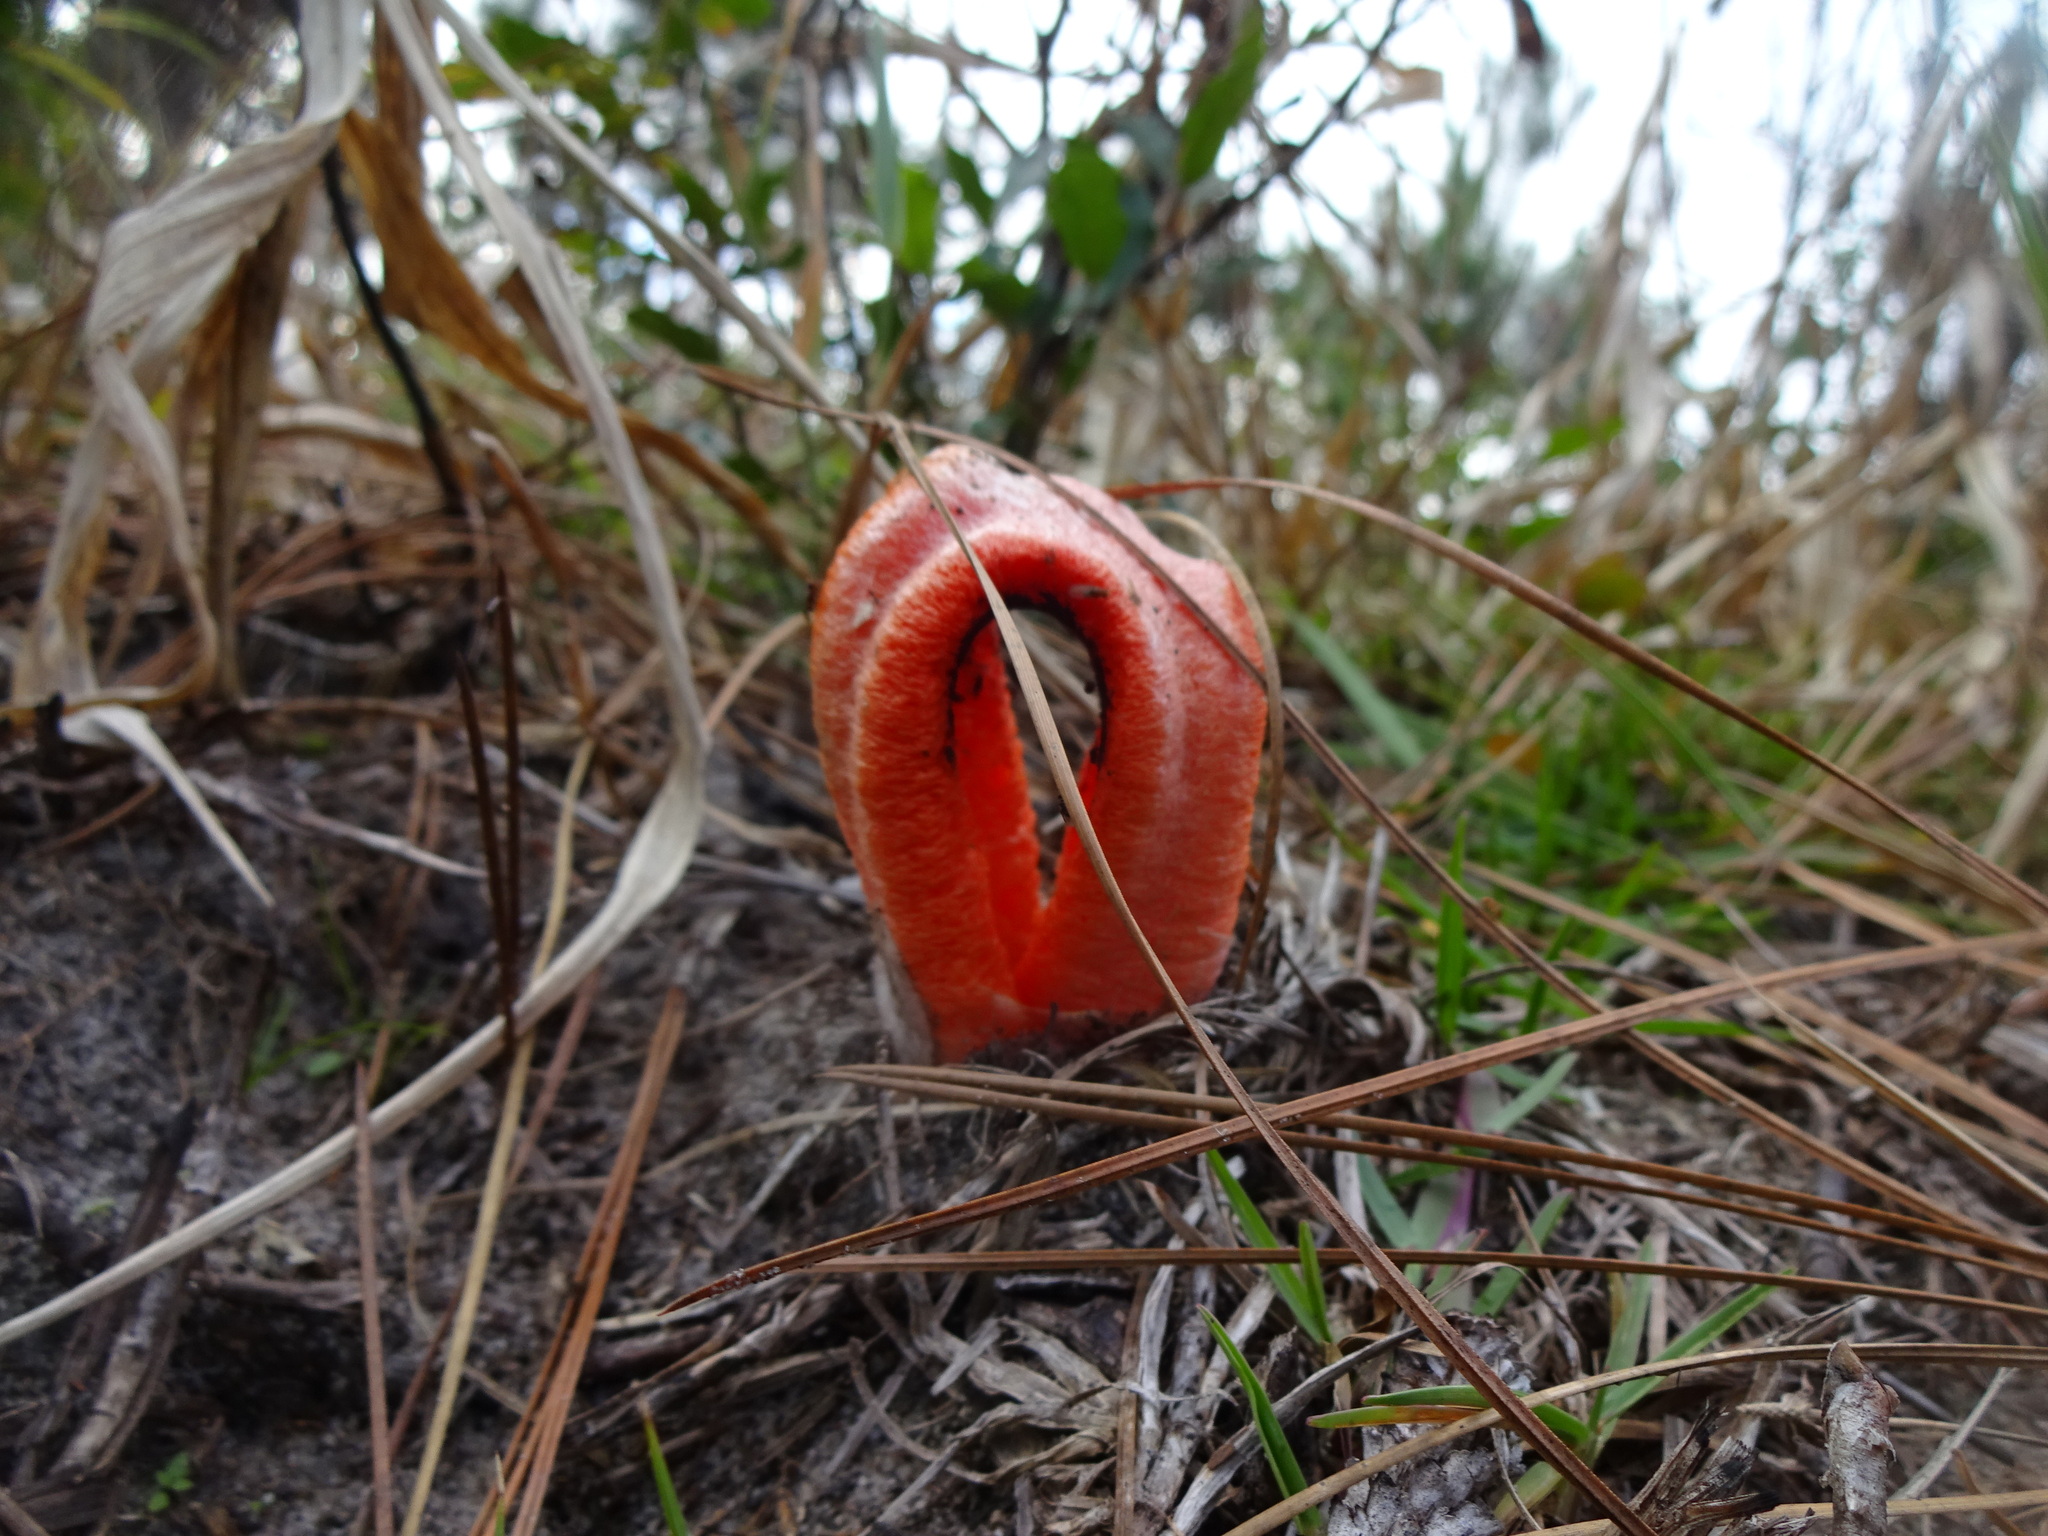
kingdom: Fungi
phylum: Basidiomycota
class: Agaricomycetes
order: Phallales
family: Phallaceae
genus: Clathrus
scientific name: Clathrus columnatus
